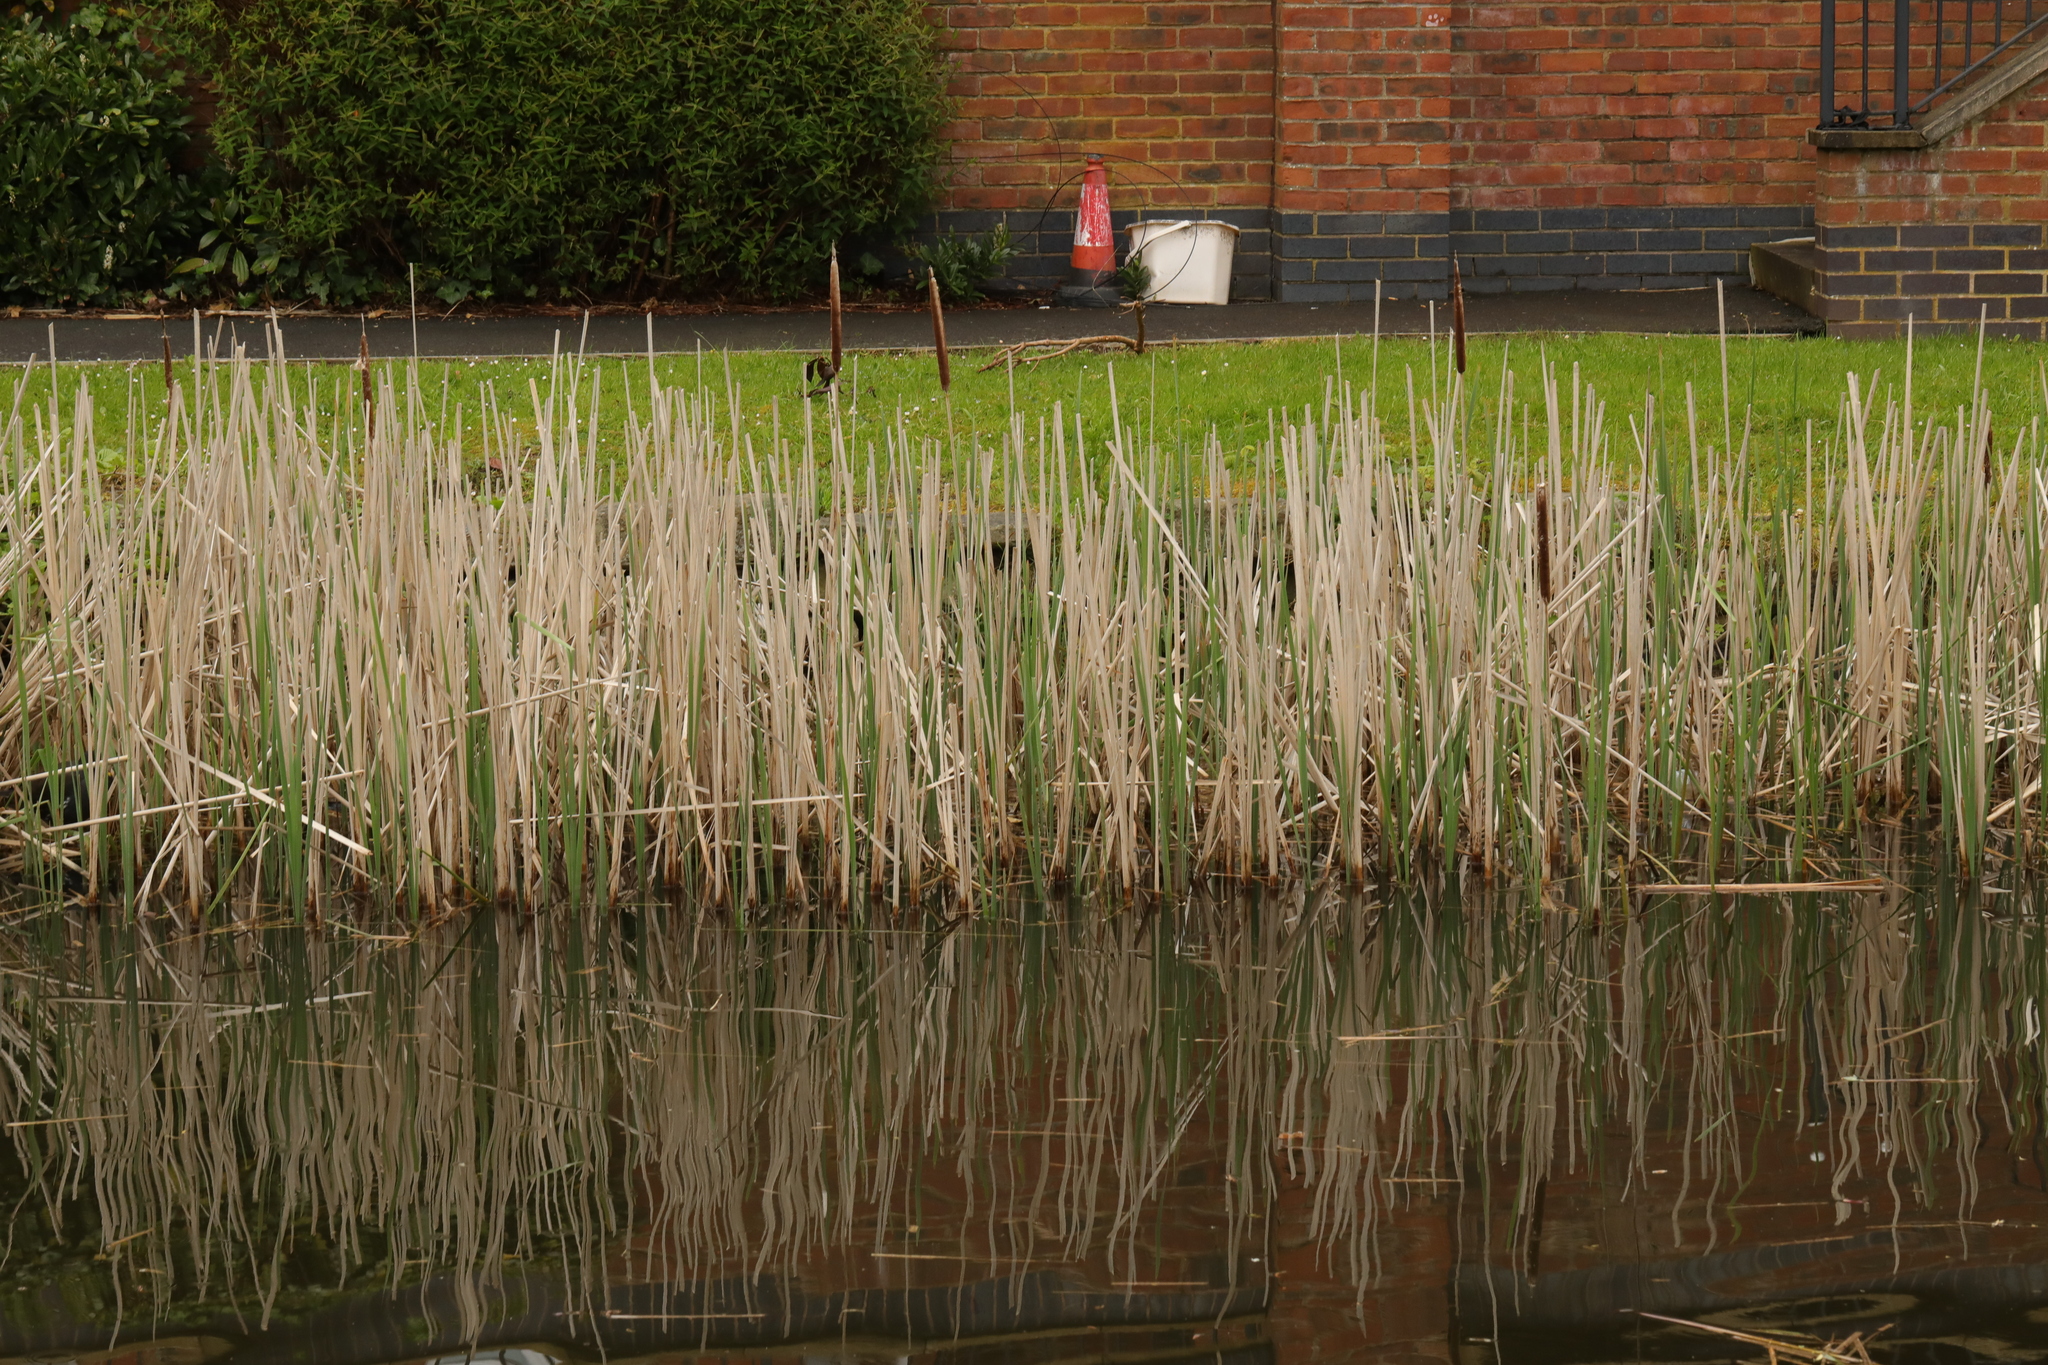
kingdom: Plantae
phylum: Tracheophyta
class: Liliopsida
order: Poales
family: Typhaceae
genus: Typha
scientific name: Typha glauca
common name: Blue cattail
